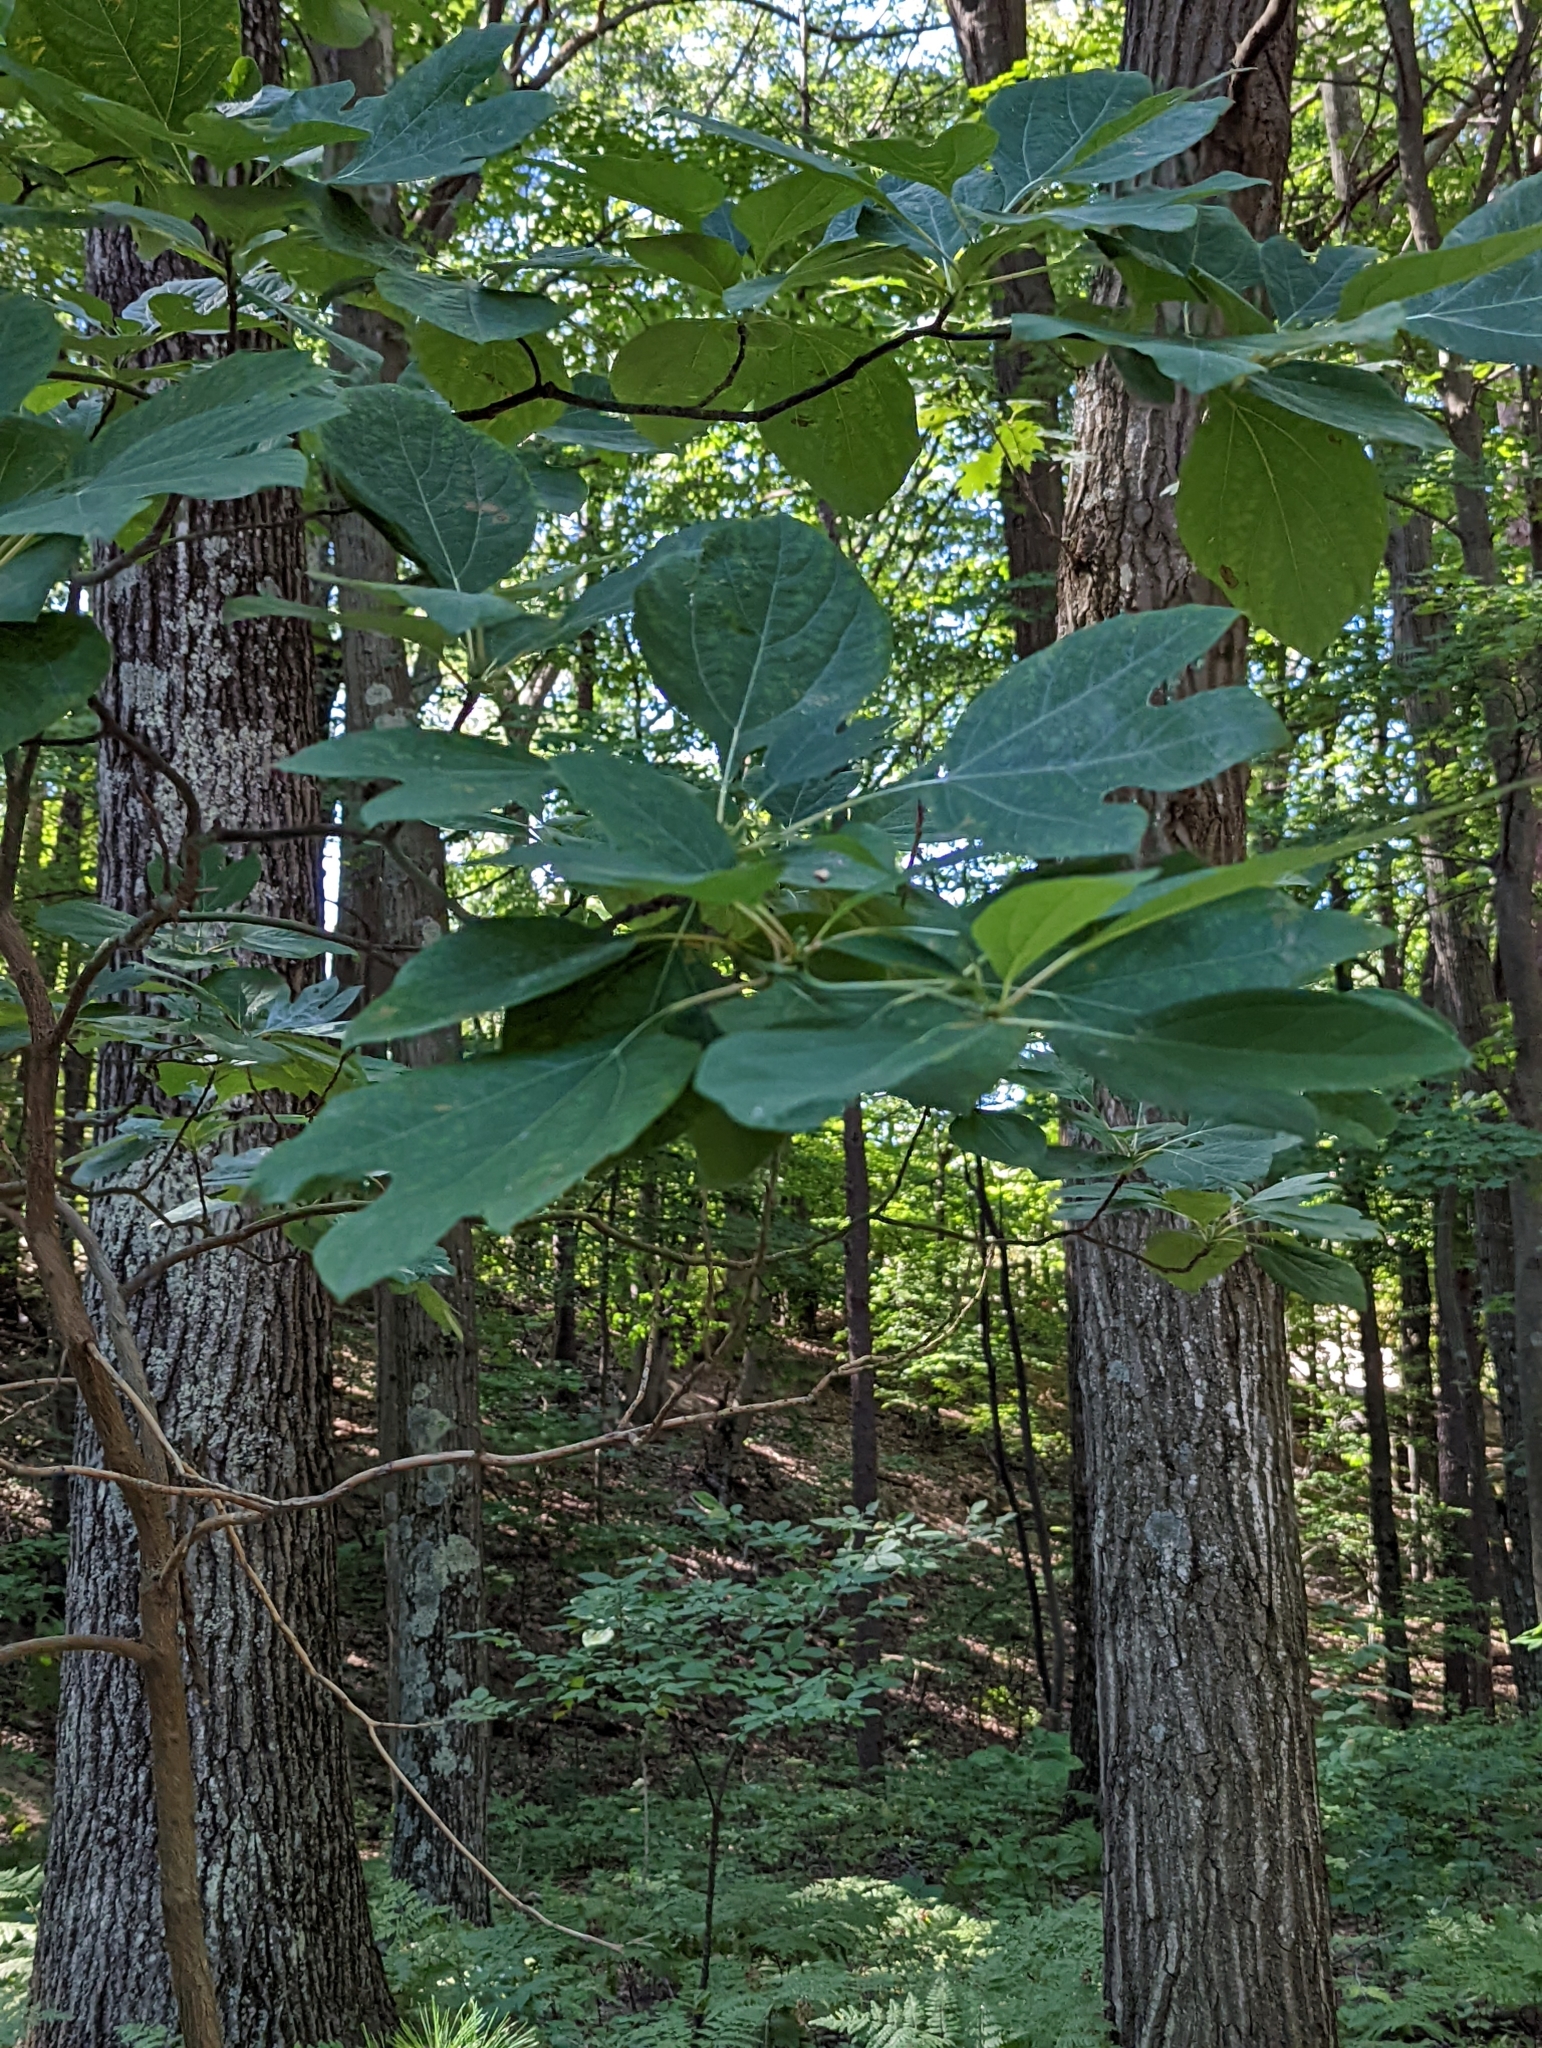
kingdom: Plantae
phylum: Tracheophyta
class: Magnoliopsida
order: Laurales
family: Lauraceae
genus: Sassafras
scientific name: Sassafras albidum
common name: Sassafras
